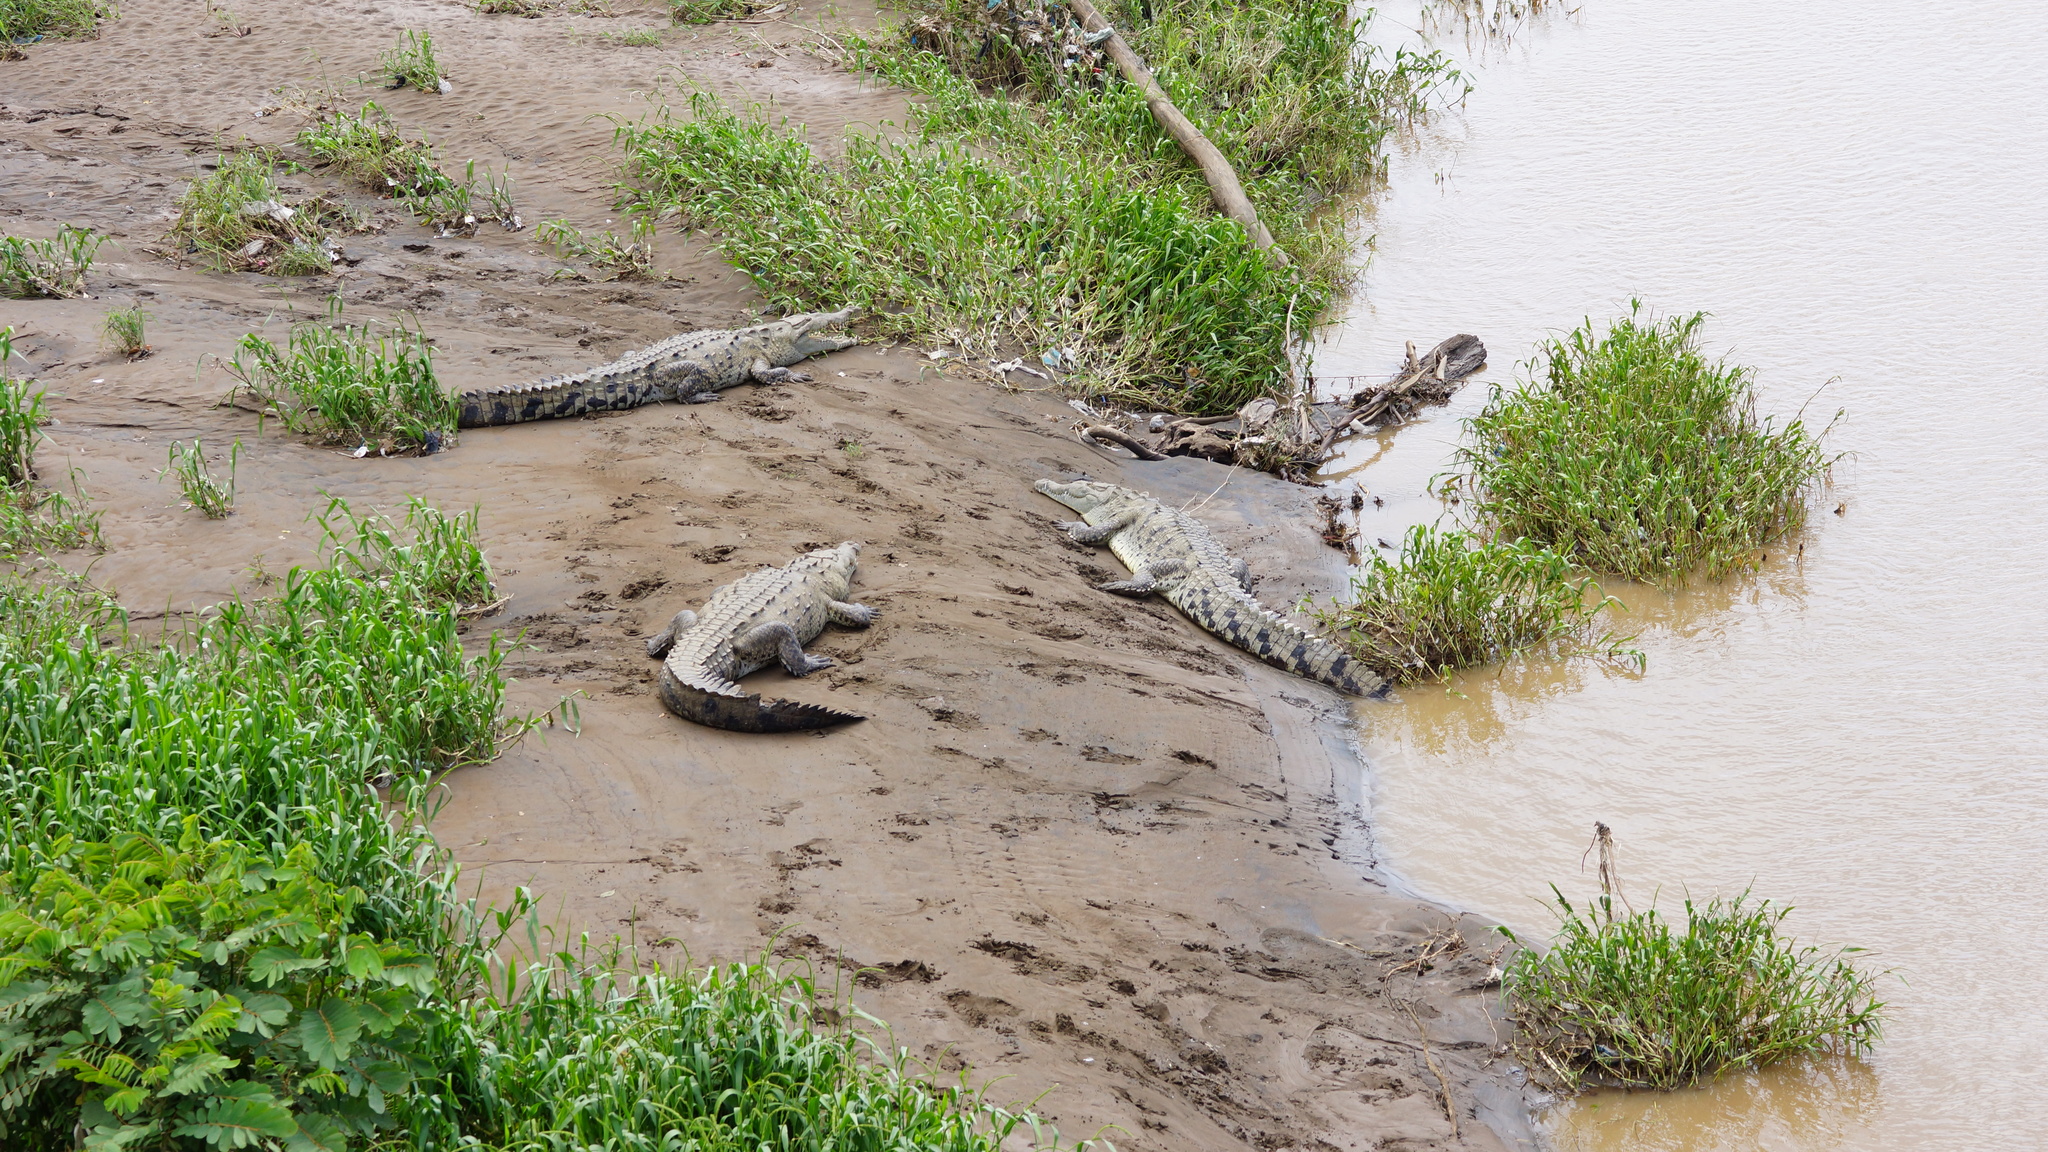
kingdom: Animalia
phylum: Chordata
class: Crocodylia
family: Crocodylidae
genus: Crocodylus
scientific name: Crocodylus acutus
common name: American crocodile
